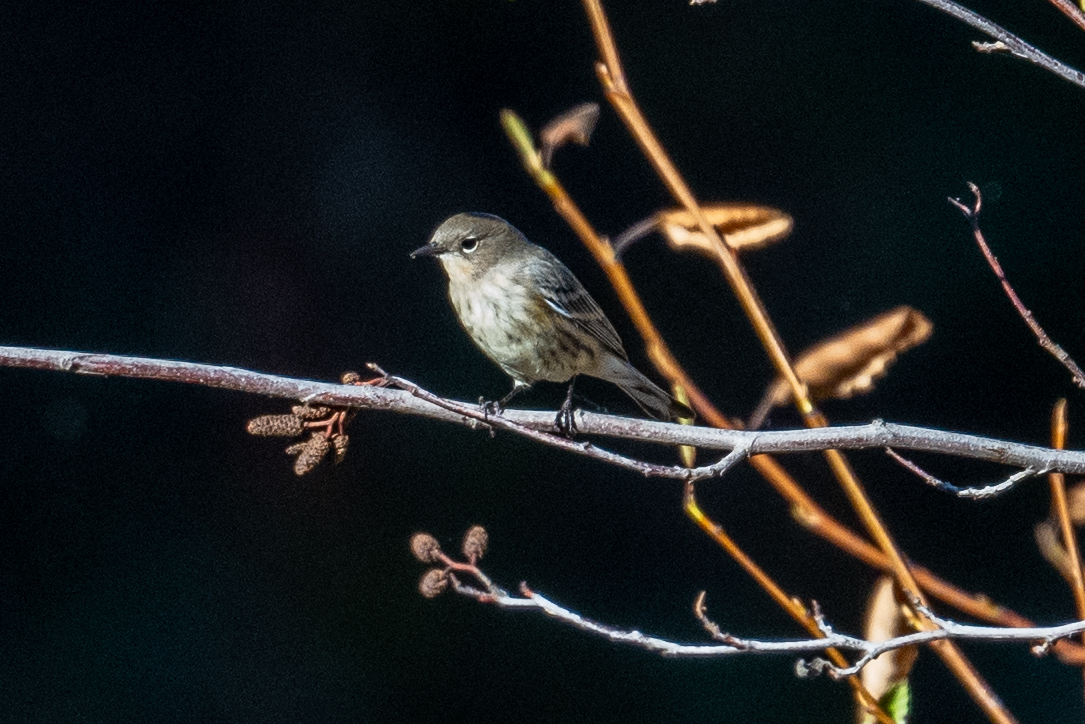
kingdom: Animalia
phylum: Chordata
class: Aves
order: Passeriformes
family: Parulidae
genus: Setophaga
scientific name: Setophaga coronata
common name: Myrtle warbler
